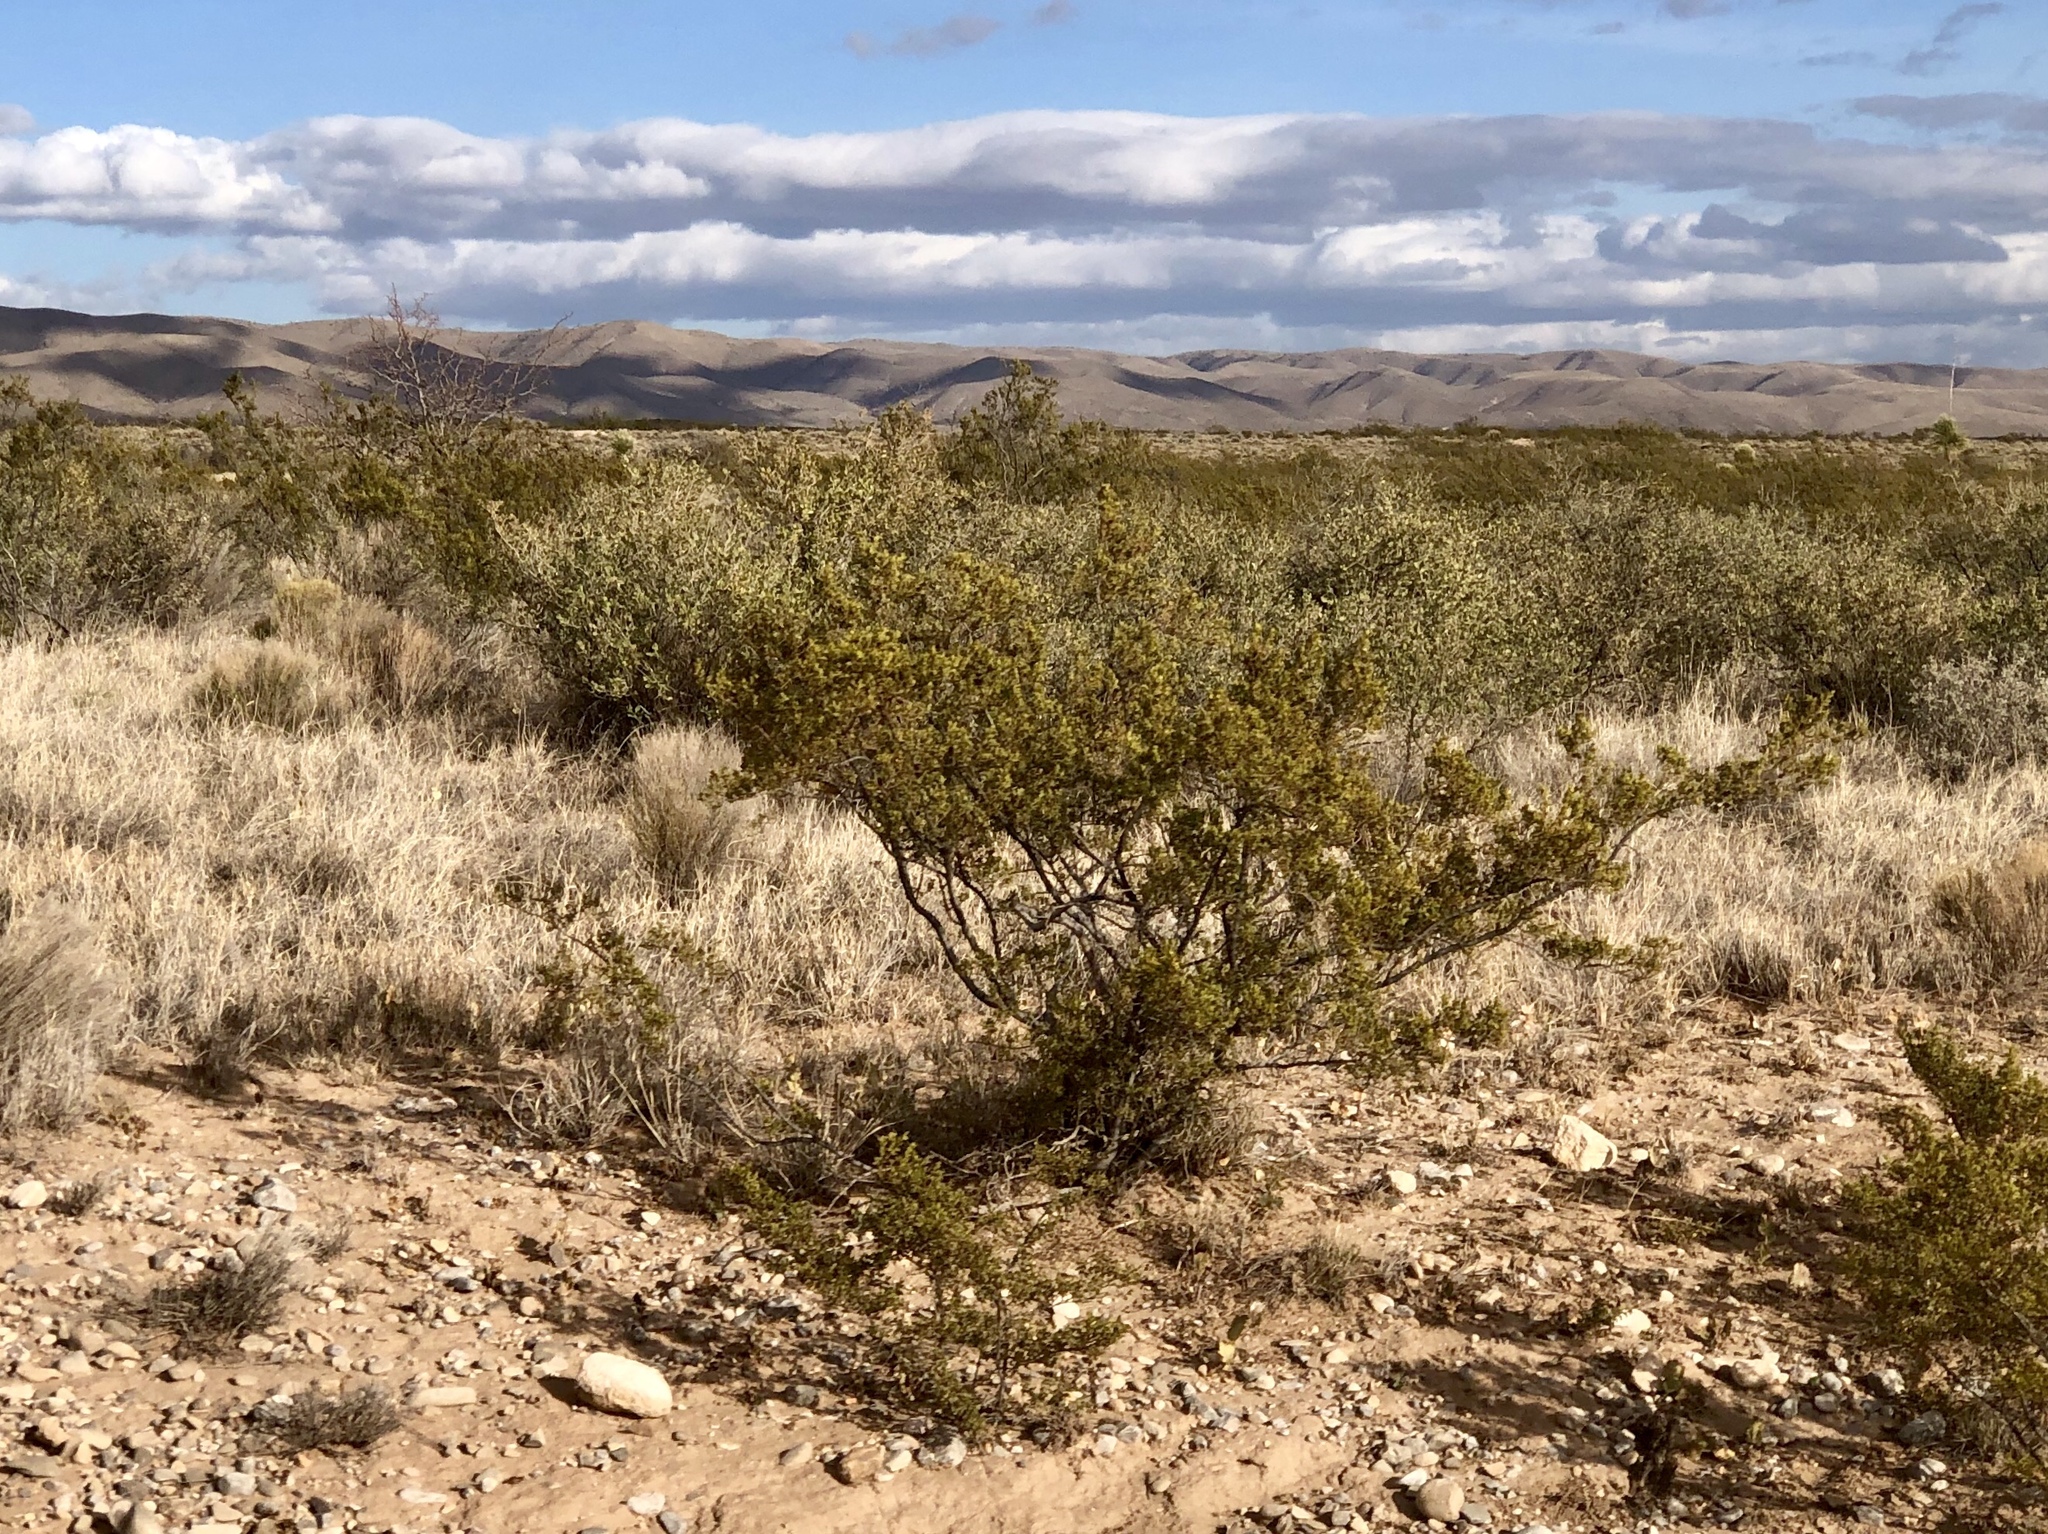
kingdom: Plantae
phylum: Tracheophyta
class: Magnoliopsida
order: Zygophyllales
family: Zygophyllaceae
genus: Larrea
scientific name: Larrea tridentata
